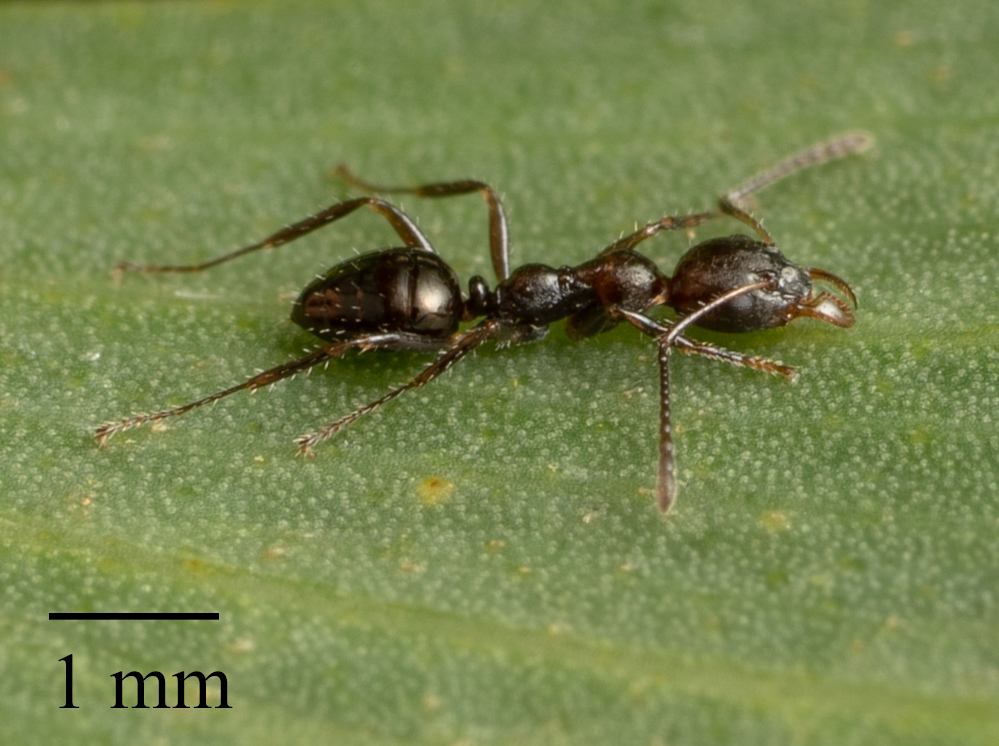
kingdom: Animalia
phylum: Arthropoda
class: Insecta
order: Hymenoptera
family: Formicidae
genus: Myrmecorhynchus
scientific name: Myrmecorhynchus emeryi
